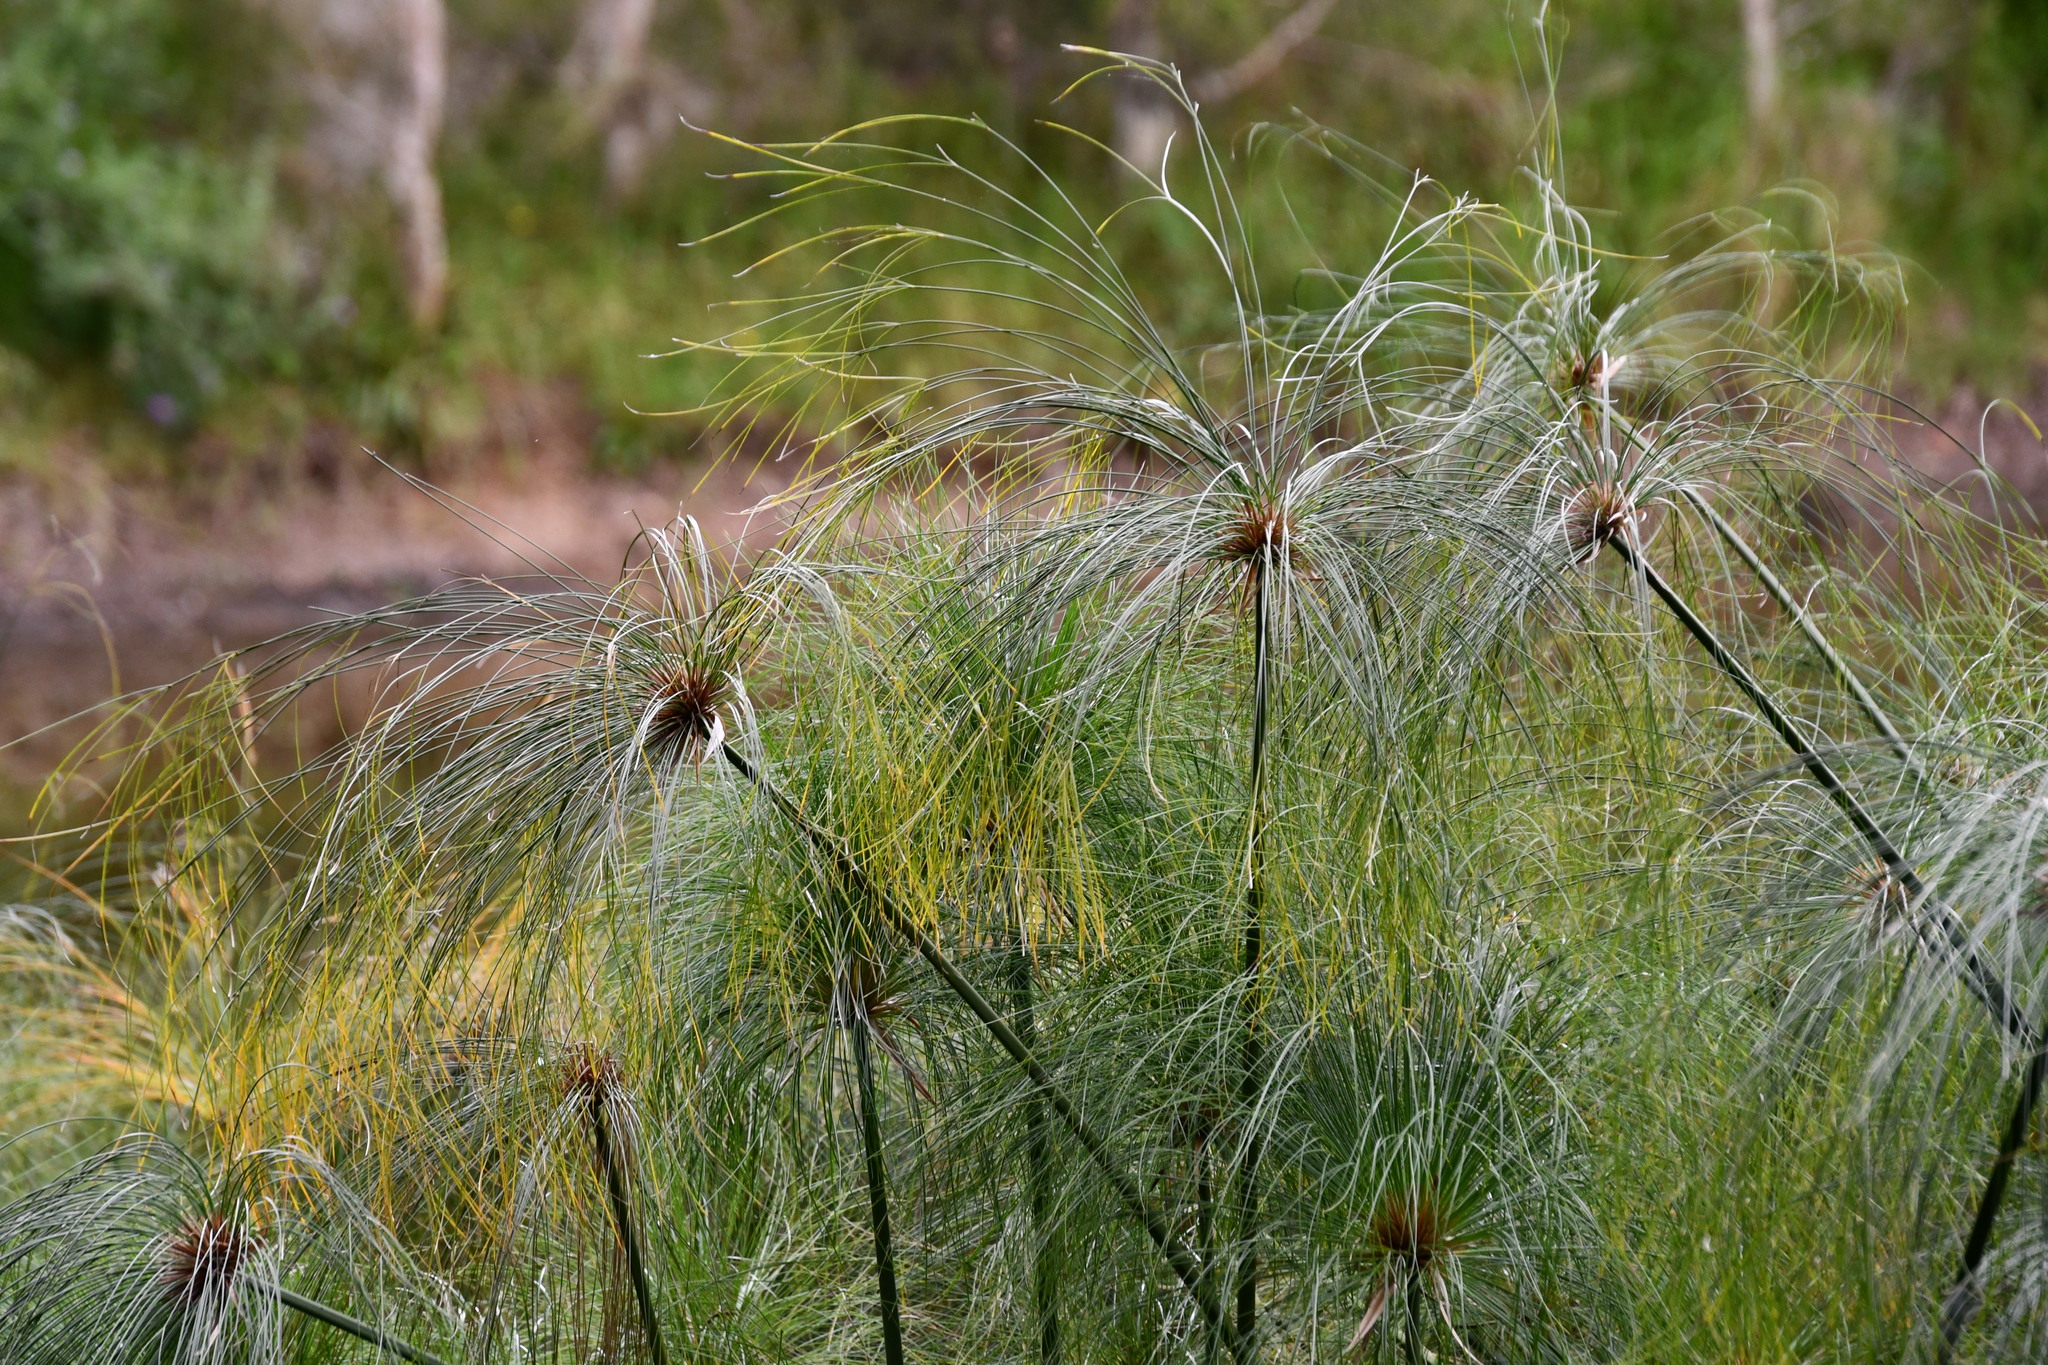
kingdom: Plantae
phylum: Tracheophyta
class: Liliopsida
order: Poales
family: Cyperaceae
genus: Cyperus
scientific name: Cyperus papyrus
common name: Papyrus
